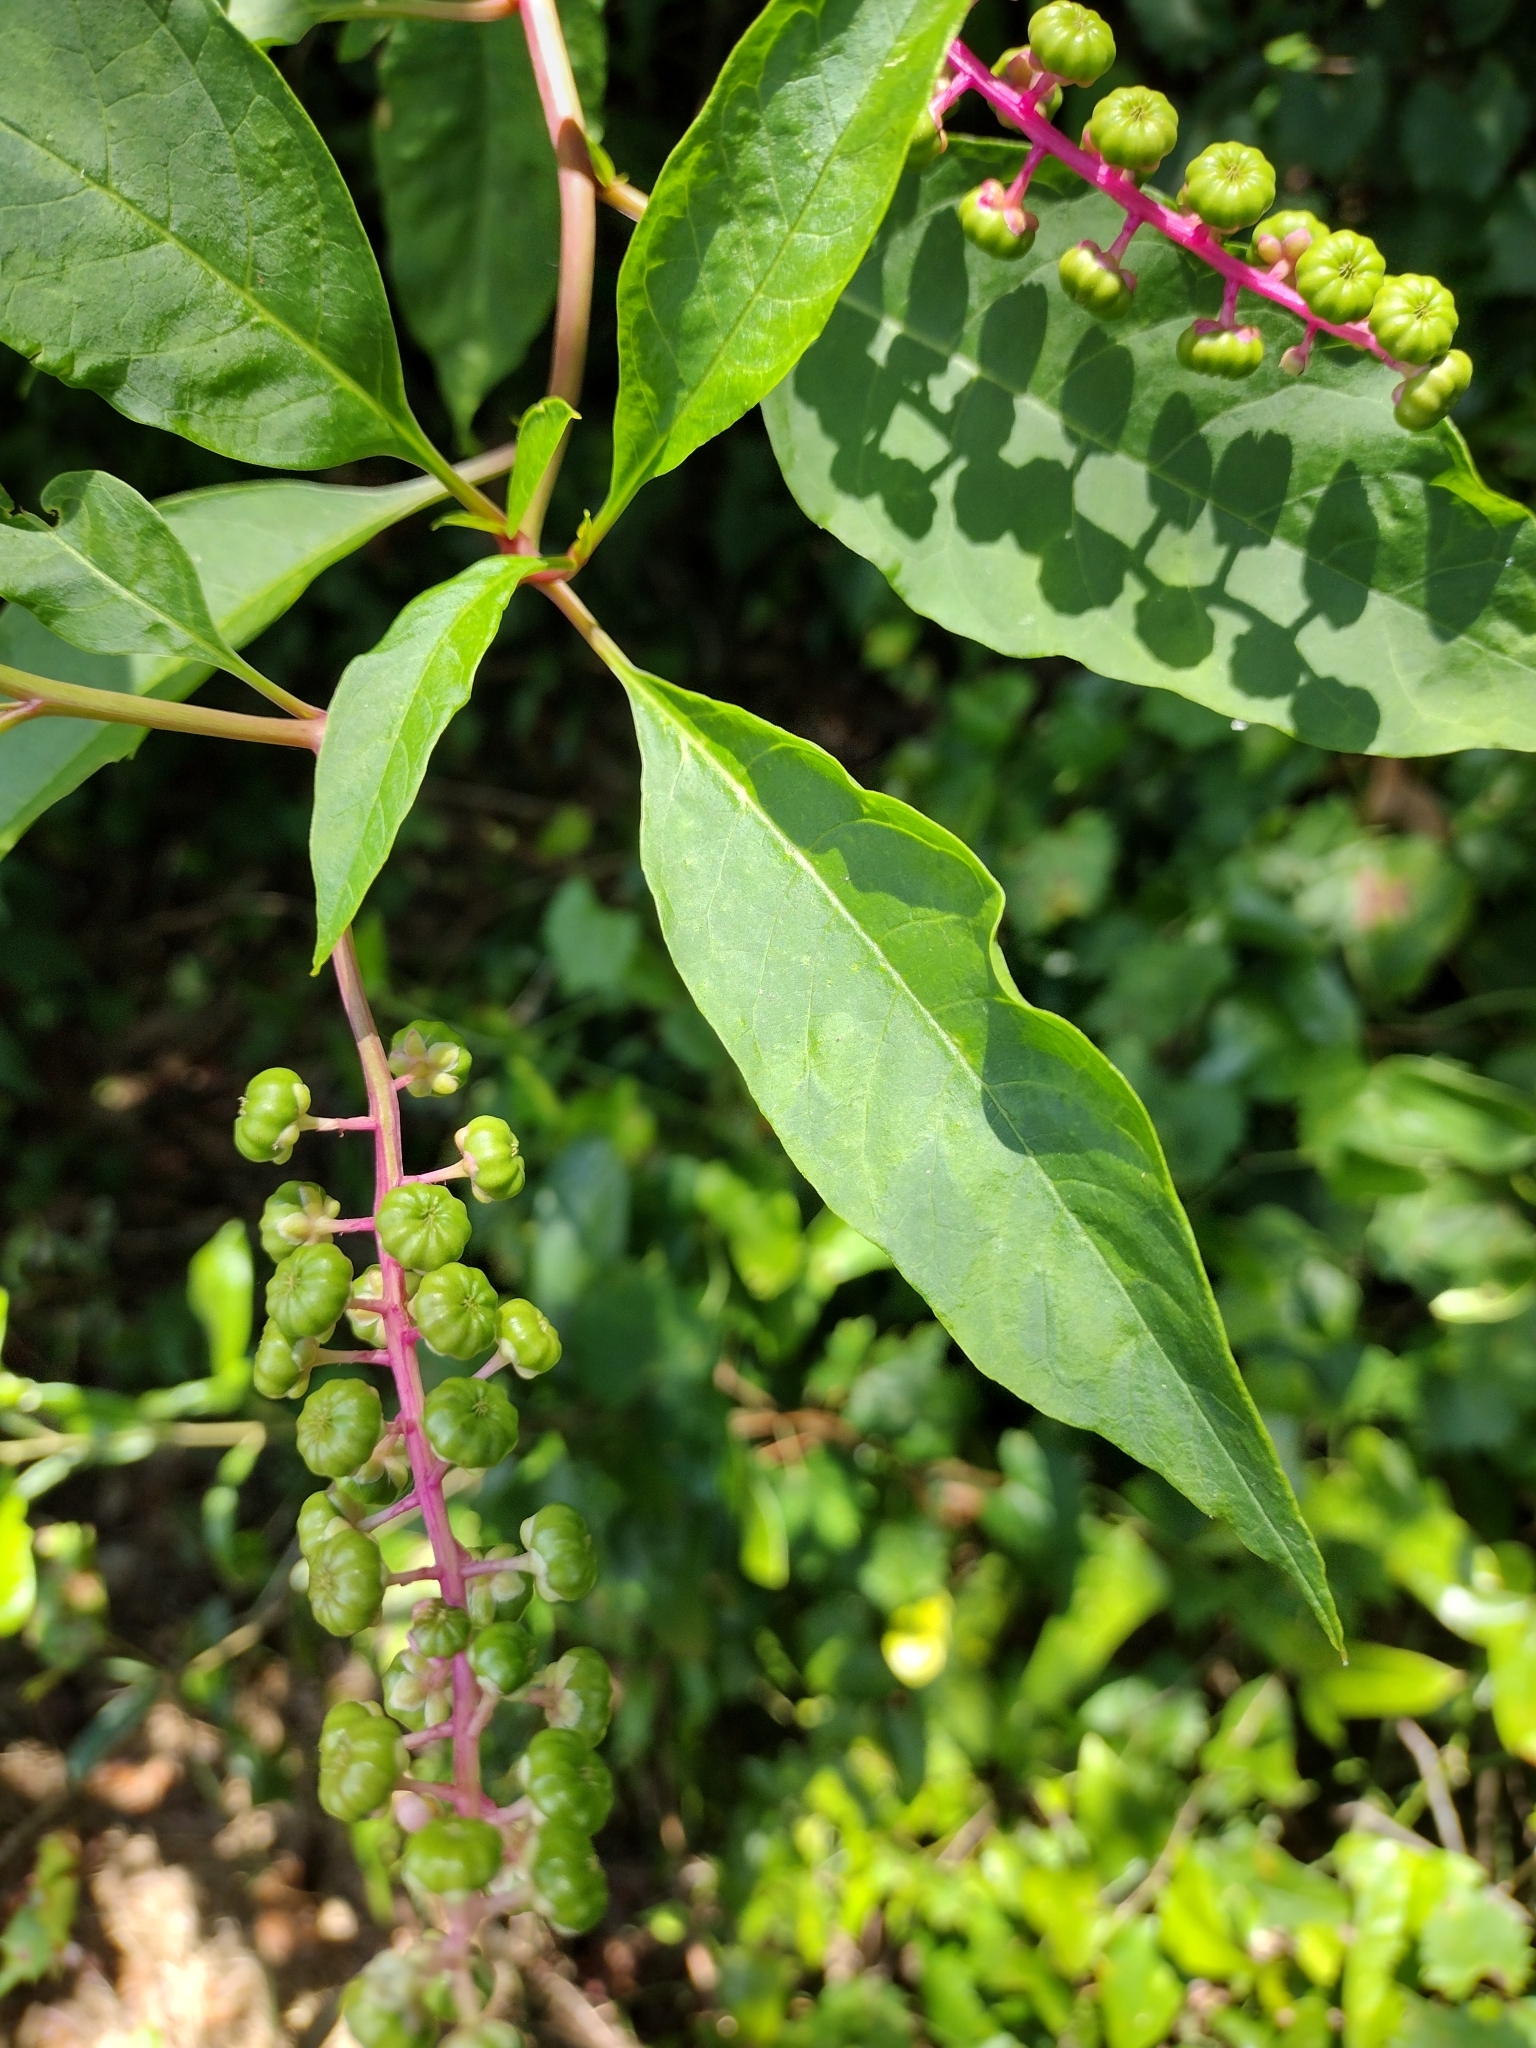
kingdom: Plantae
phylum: Tracheophyta
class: Magnoliopsida
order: Caryophyllales
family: Phytolaccaceae
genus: Phytolacca
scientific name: Phytolacca americana
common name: American pokeweed
